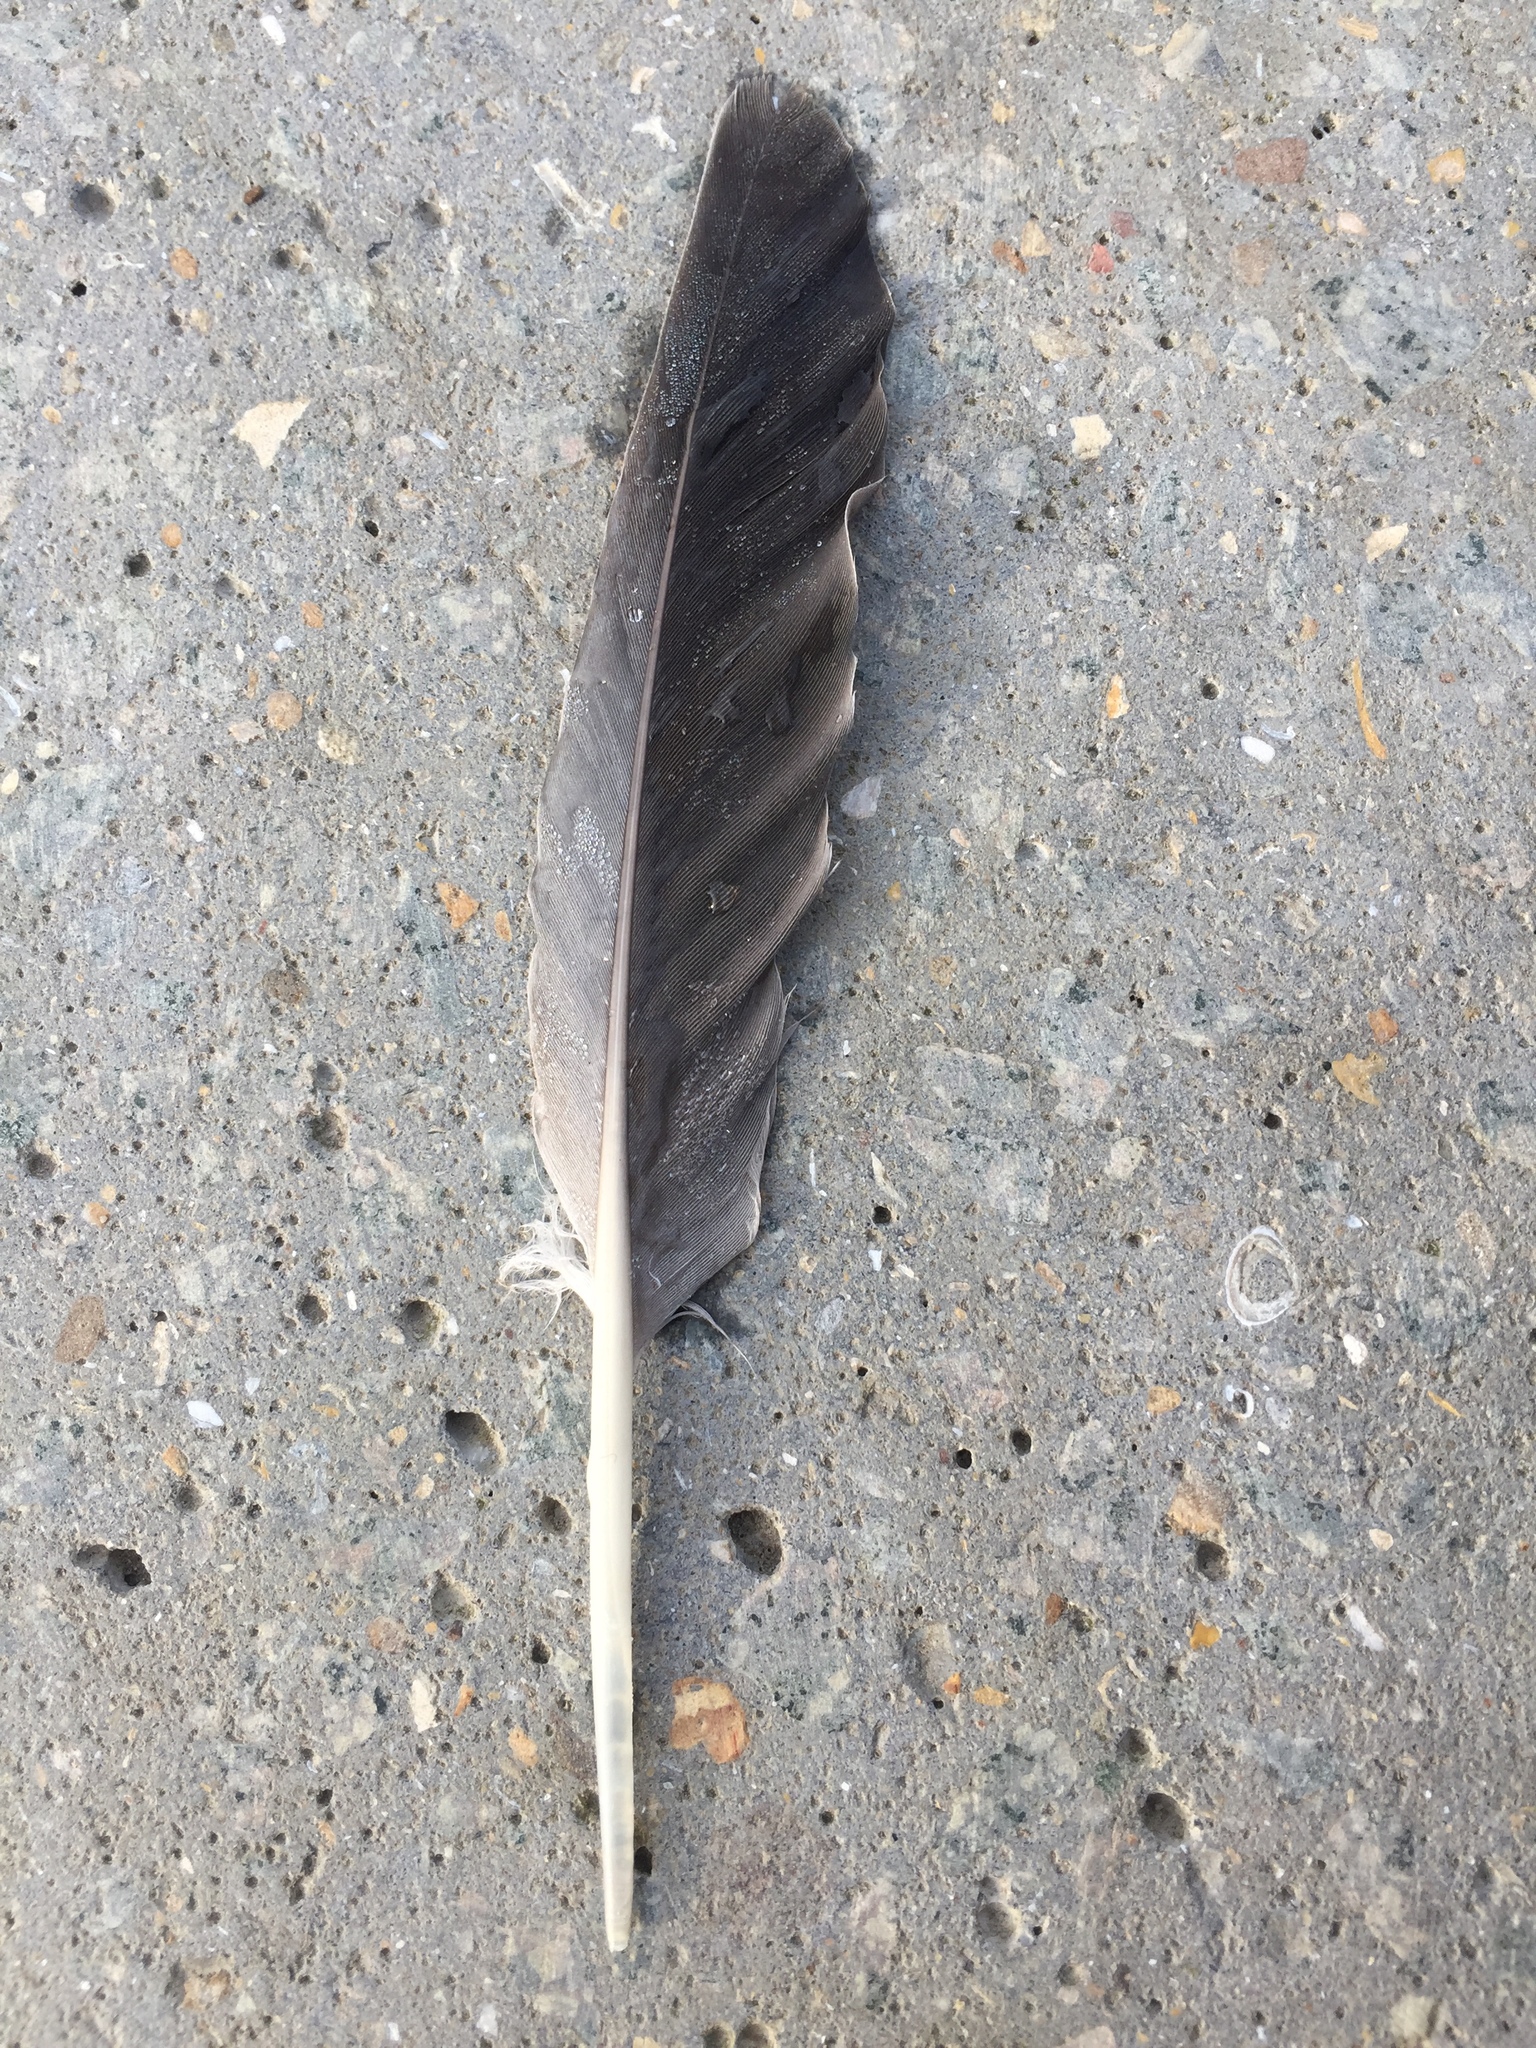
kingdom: Animalia
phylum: Chordata
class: Aves
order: Columbiformes
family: Columbidae
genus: Columba
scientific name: Columba oenas
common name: Stock dove
